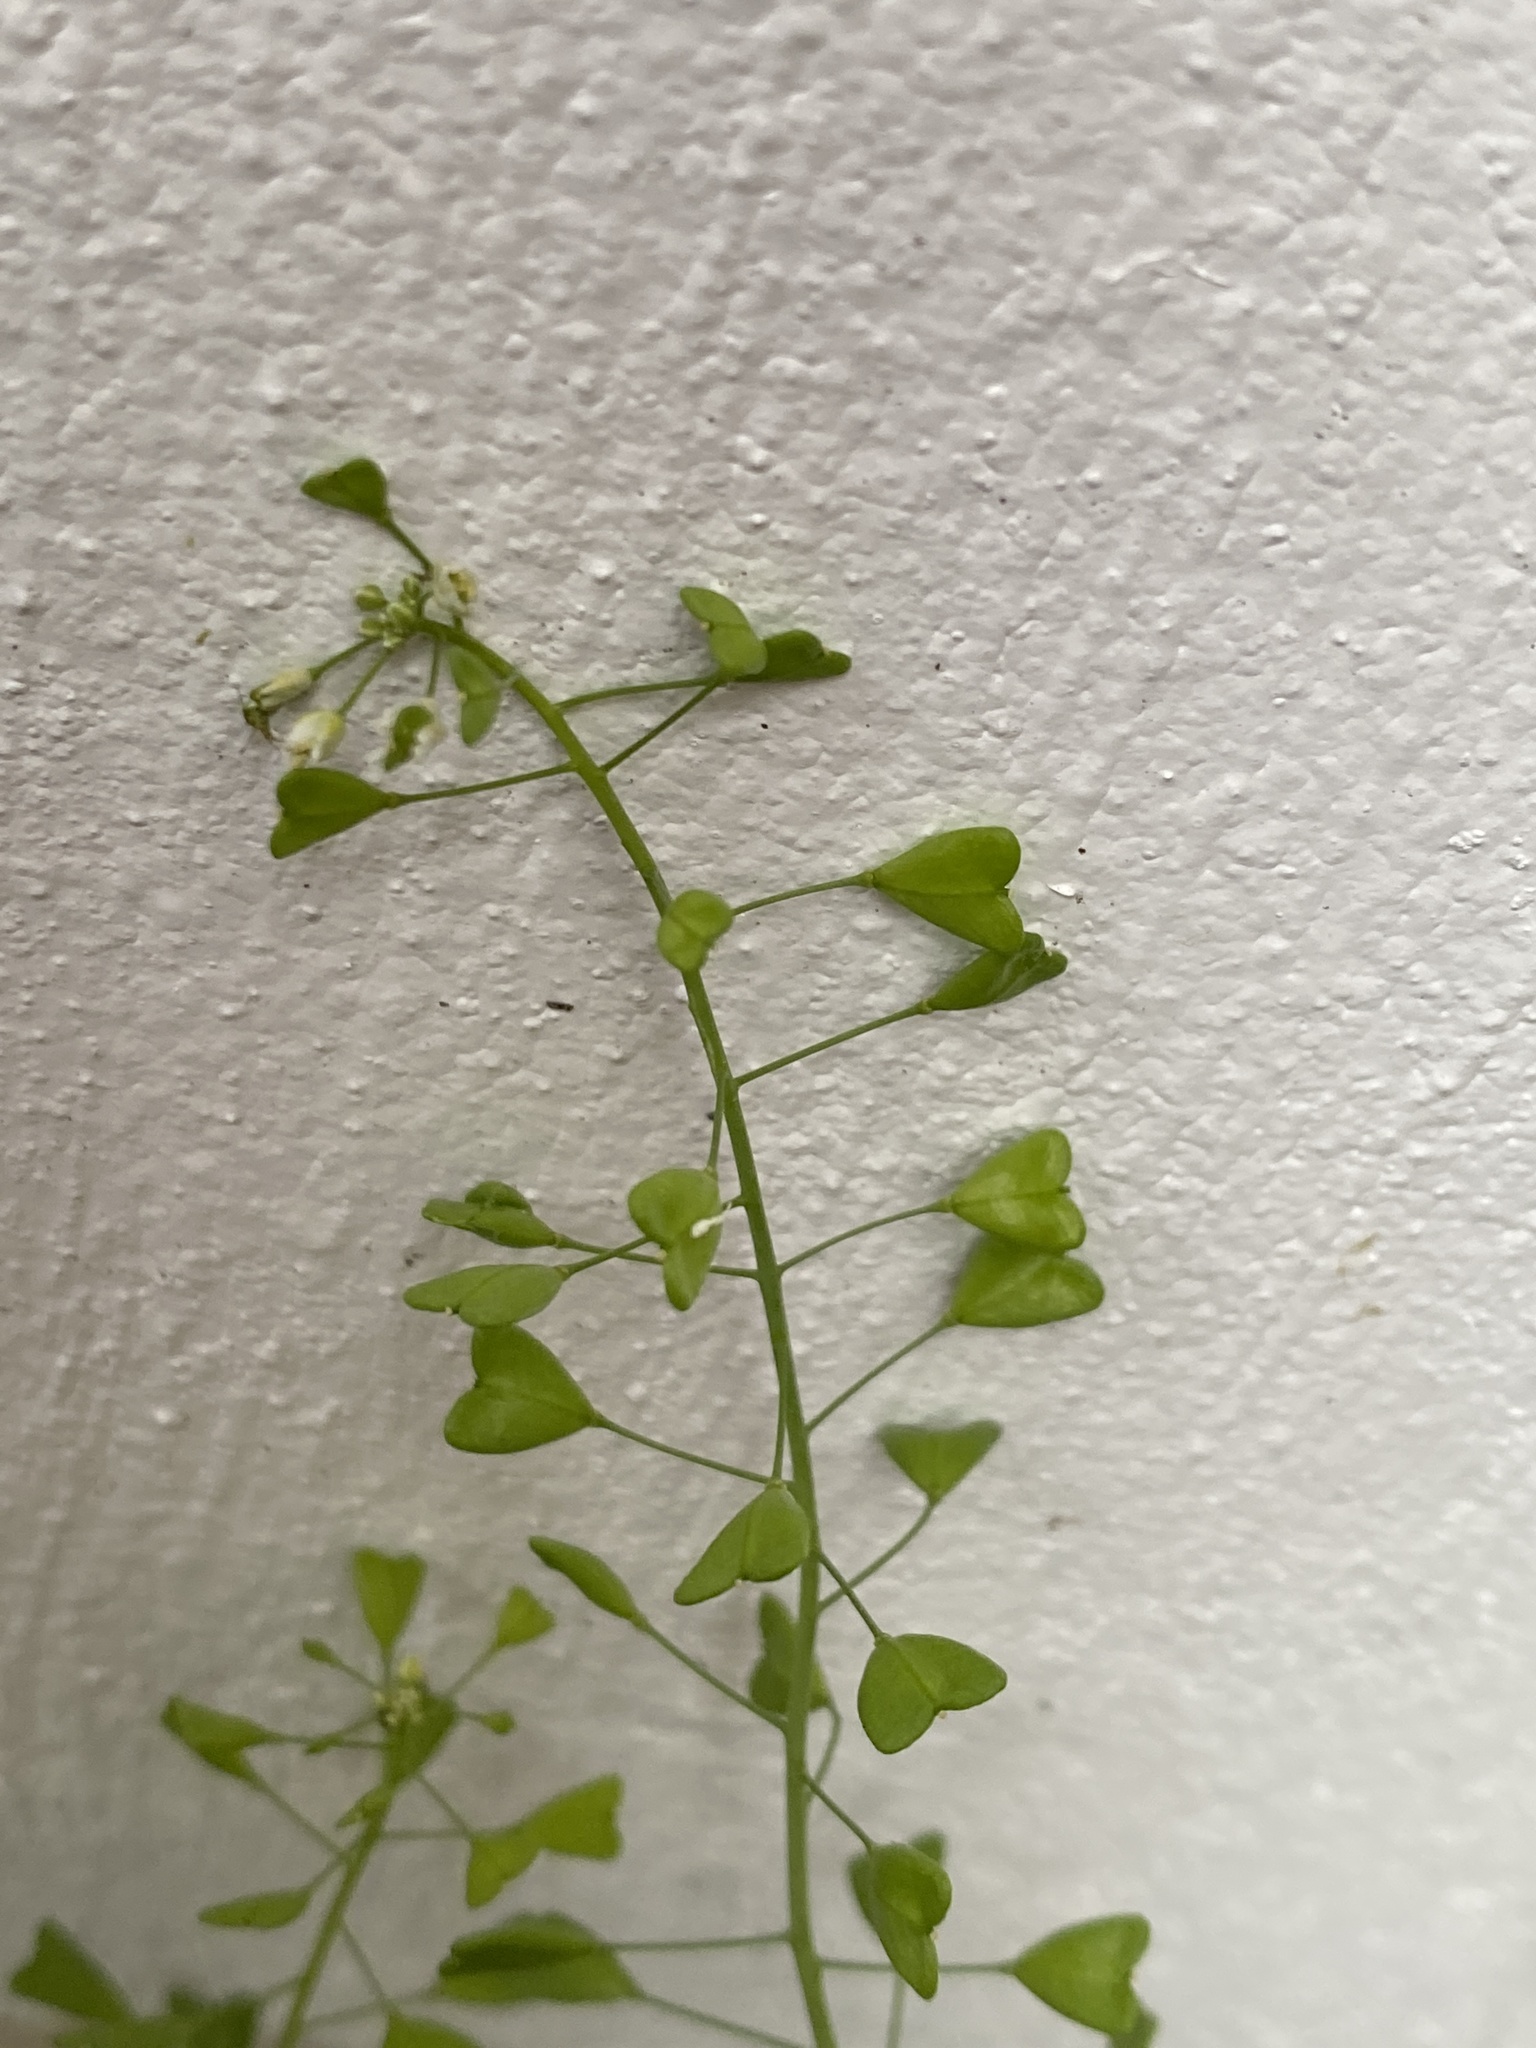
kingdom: Plantae
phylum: Tracheophyta
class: Magnoliopsida
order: Brassicales
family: Brassicaceae
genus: Capsella
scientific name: Capsella bursa-pastoris
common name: Shepherd's purse
